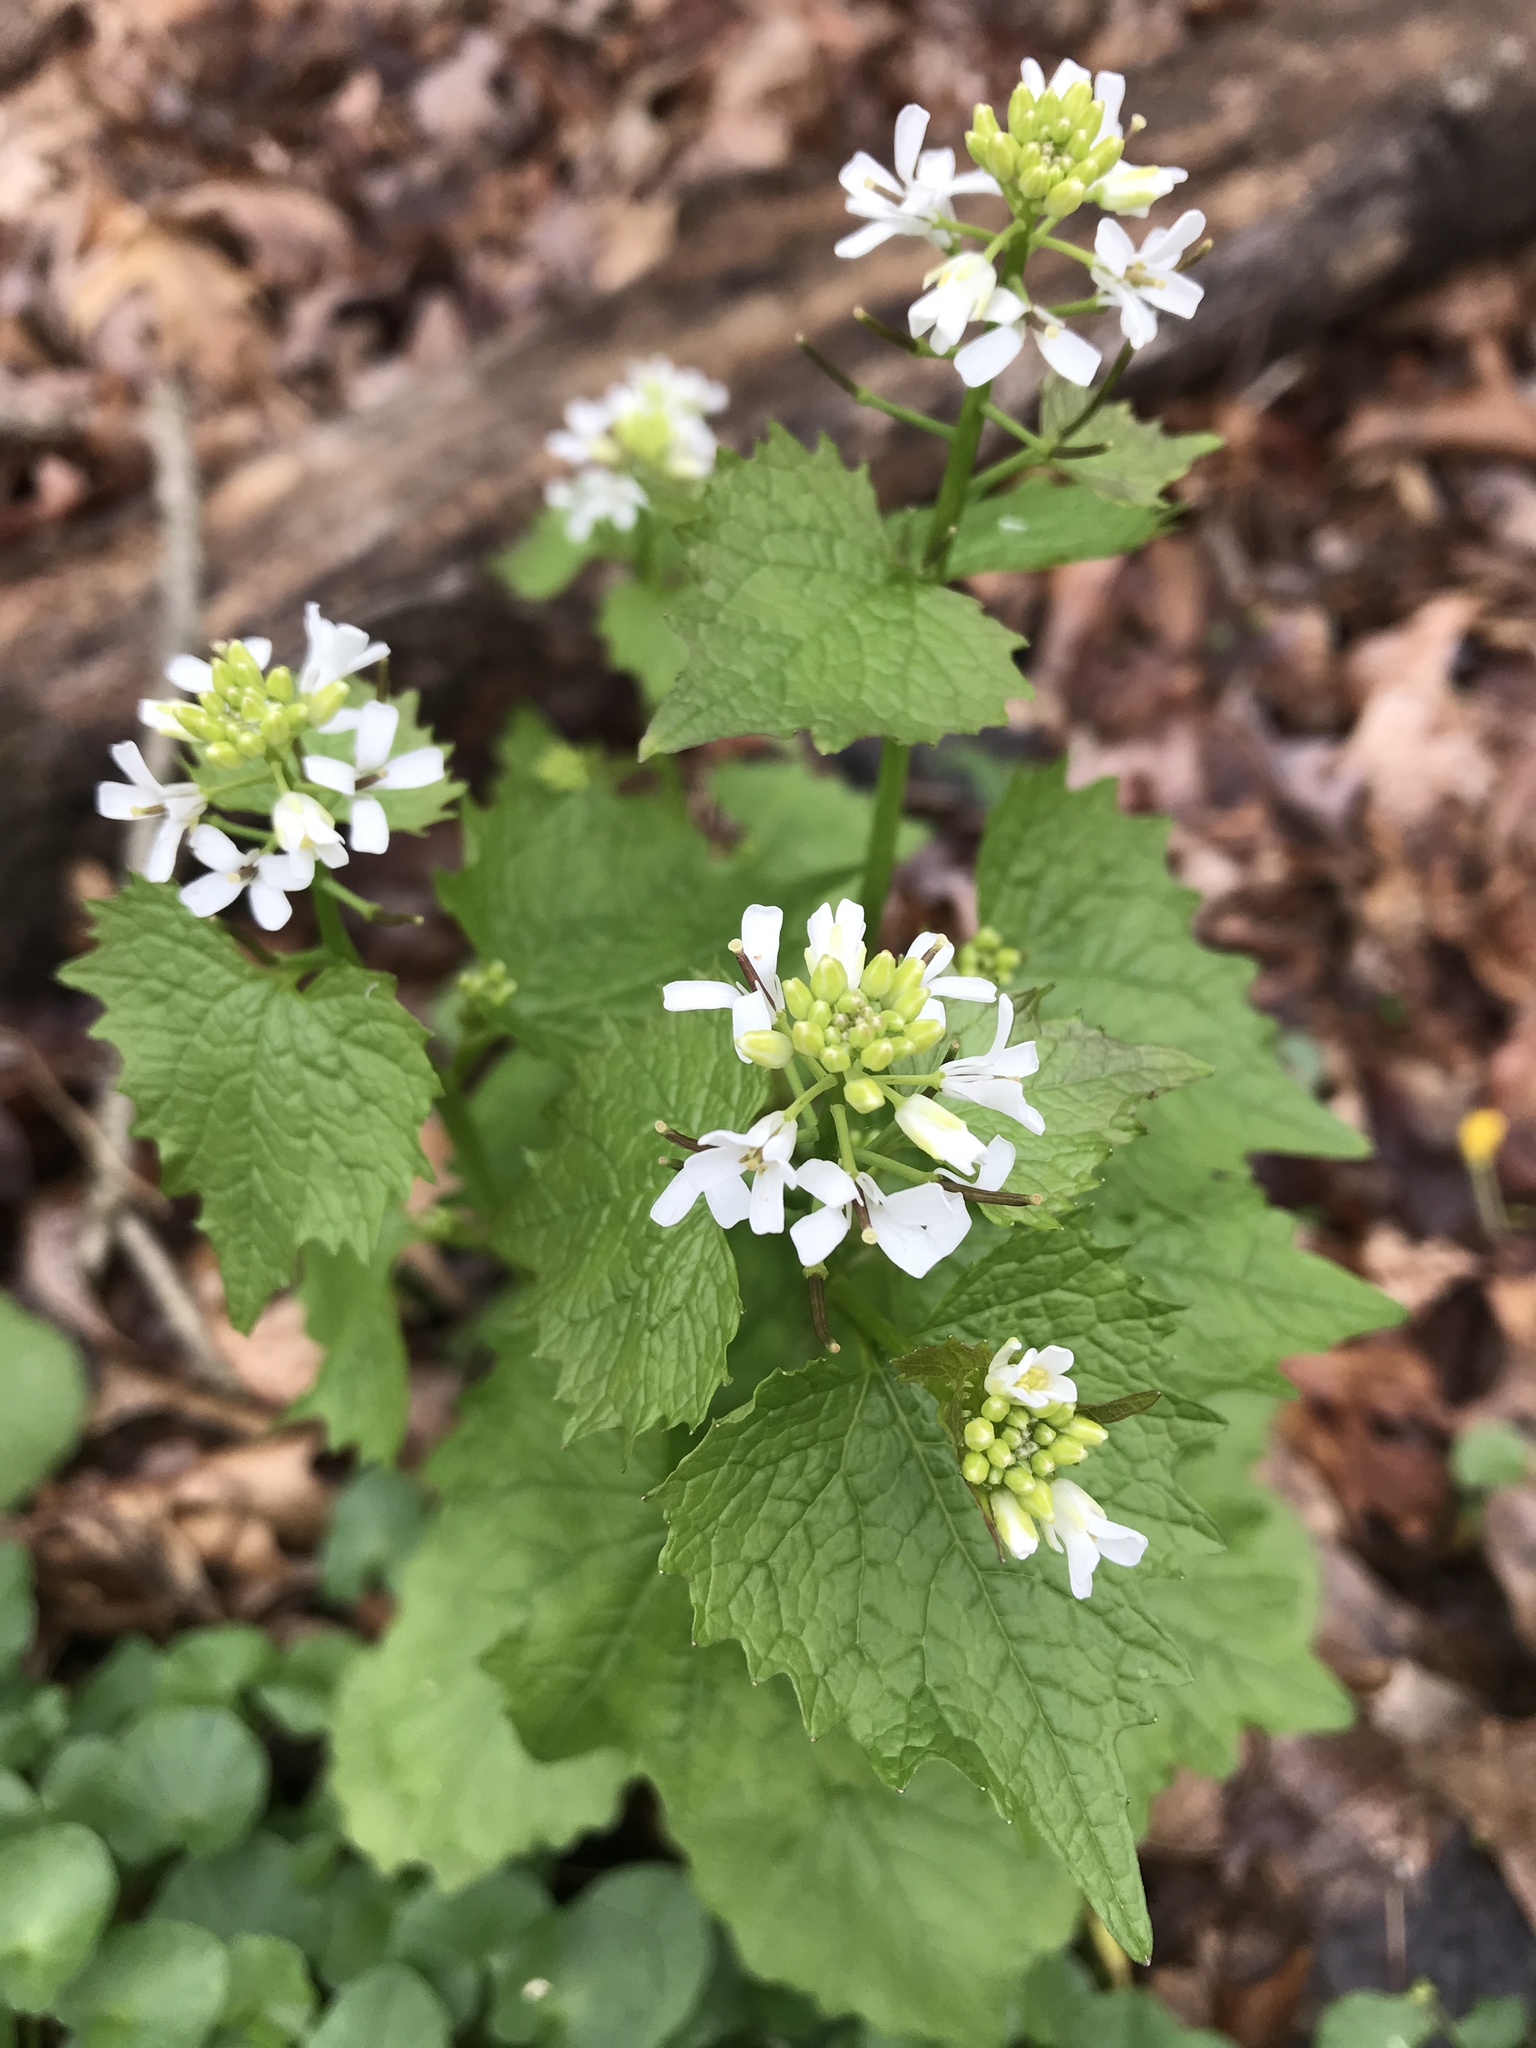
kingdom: Plantae
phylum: Tracheophyta
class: Magnoliopsida
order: Brassicales
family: Brassicaceae
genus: Alliaria
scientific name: Alliaria petiolata
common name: Garlic mustard
